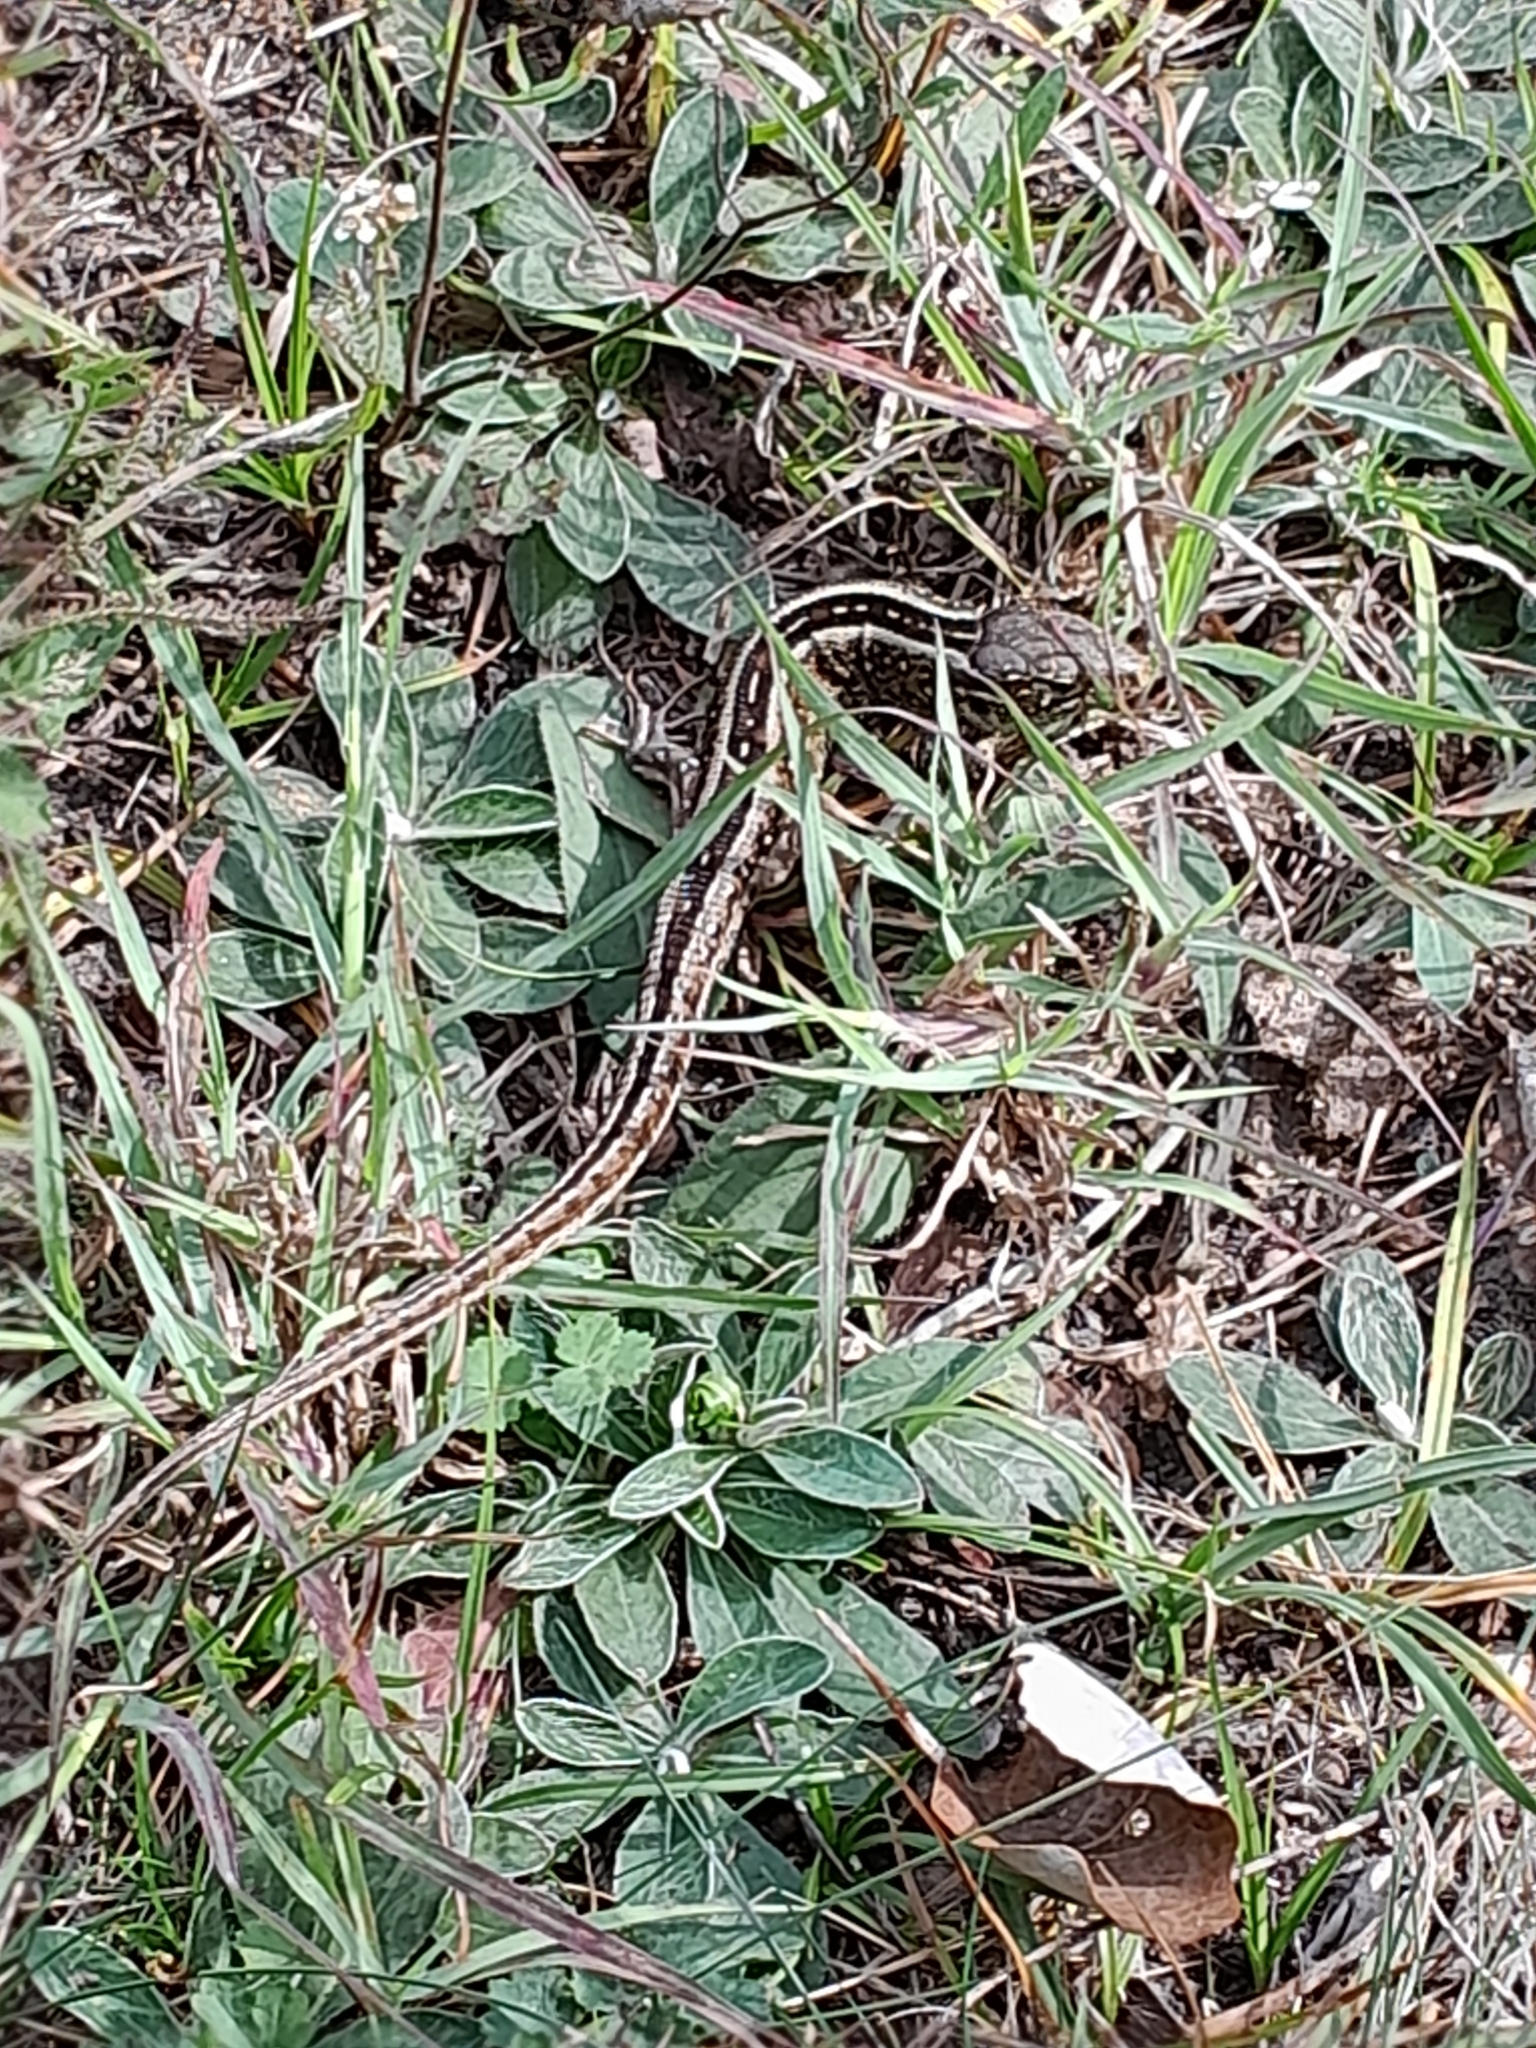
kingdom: Animalia
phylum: Chordata
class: Squamata
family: Lacertidae
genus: Lacerta
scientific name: Lacerta agilis
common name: Sand lizard
